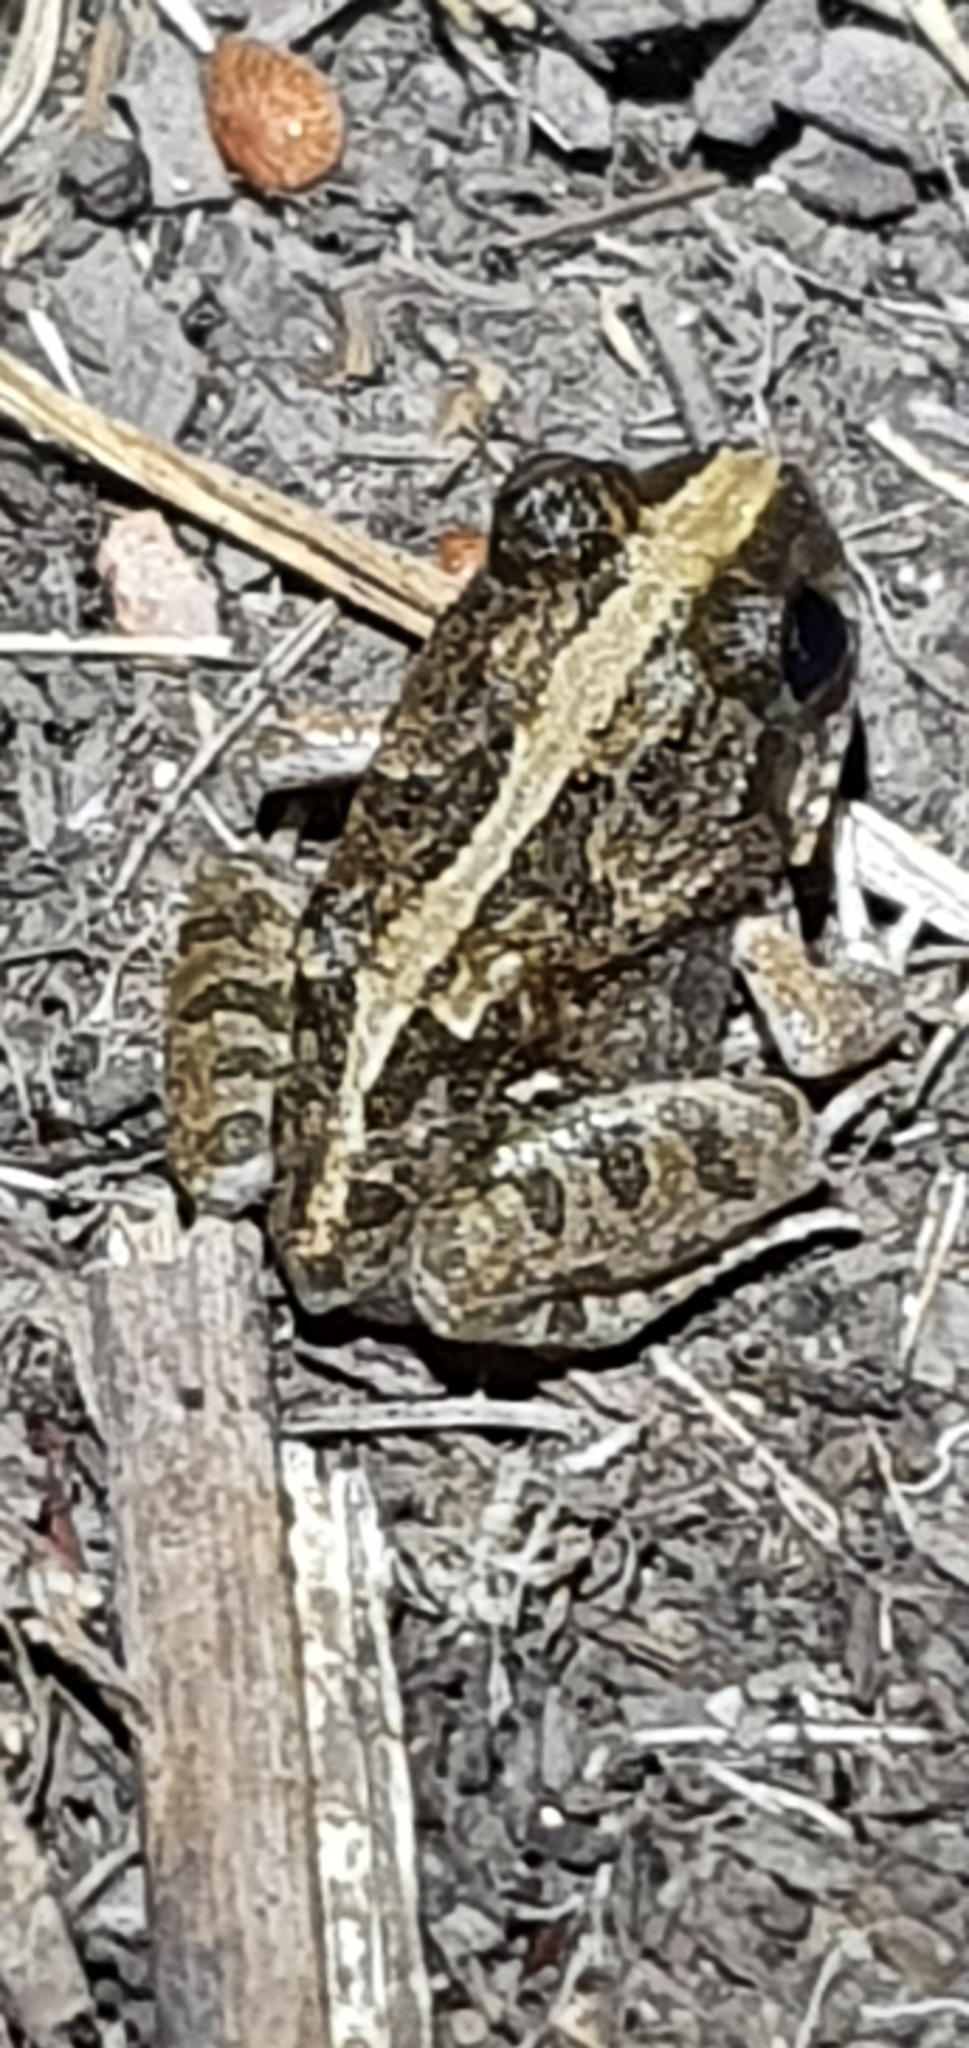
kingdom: Animalia
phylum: Chordata
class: Amphibia
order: Anura
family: Limnodynastidae
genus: Platyplectrum
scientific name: Platyplectrum ornatum
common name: Ornate burrowing frog
